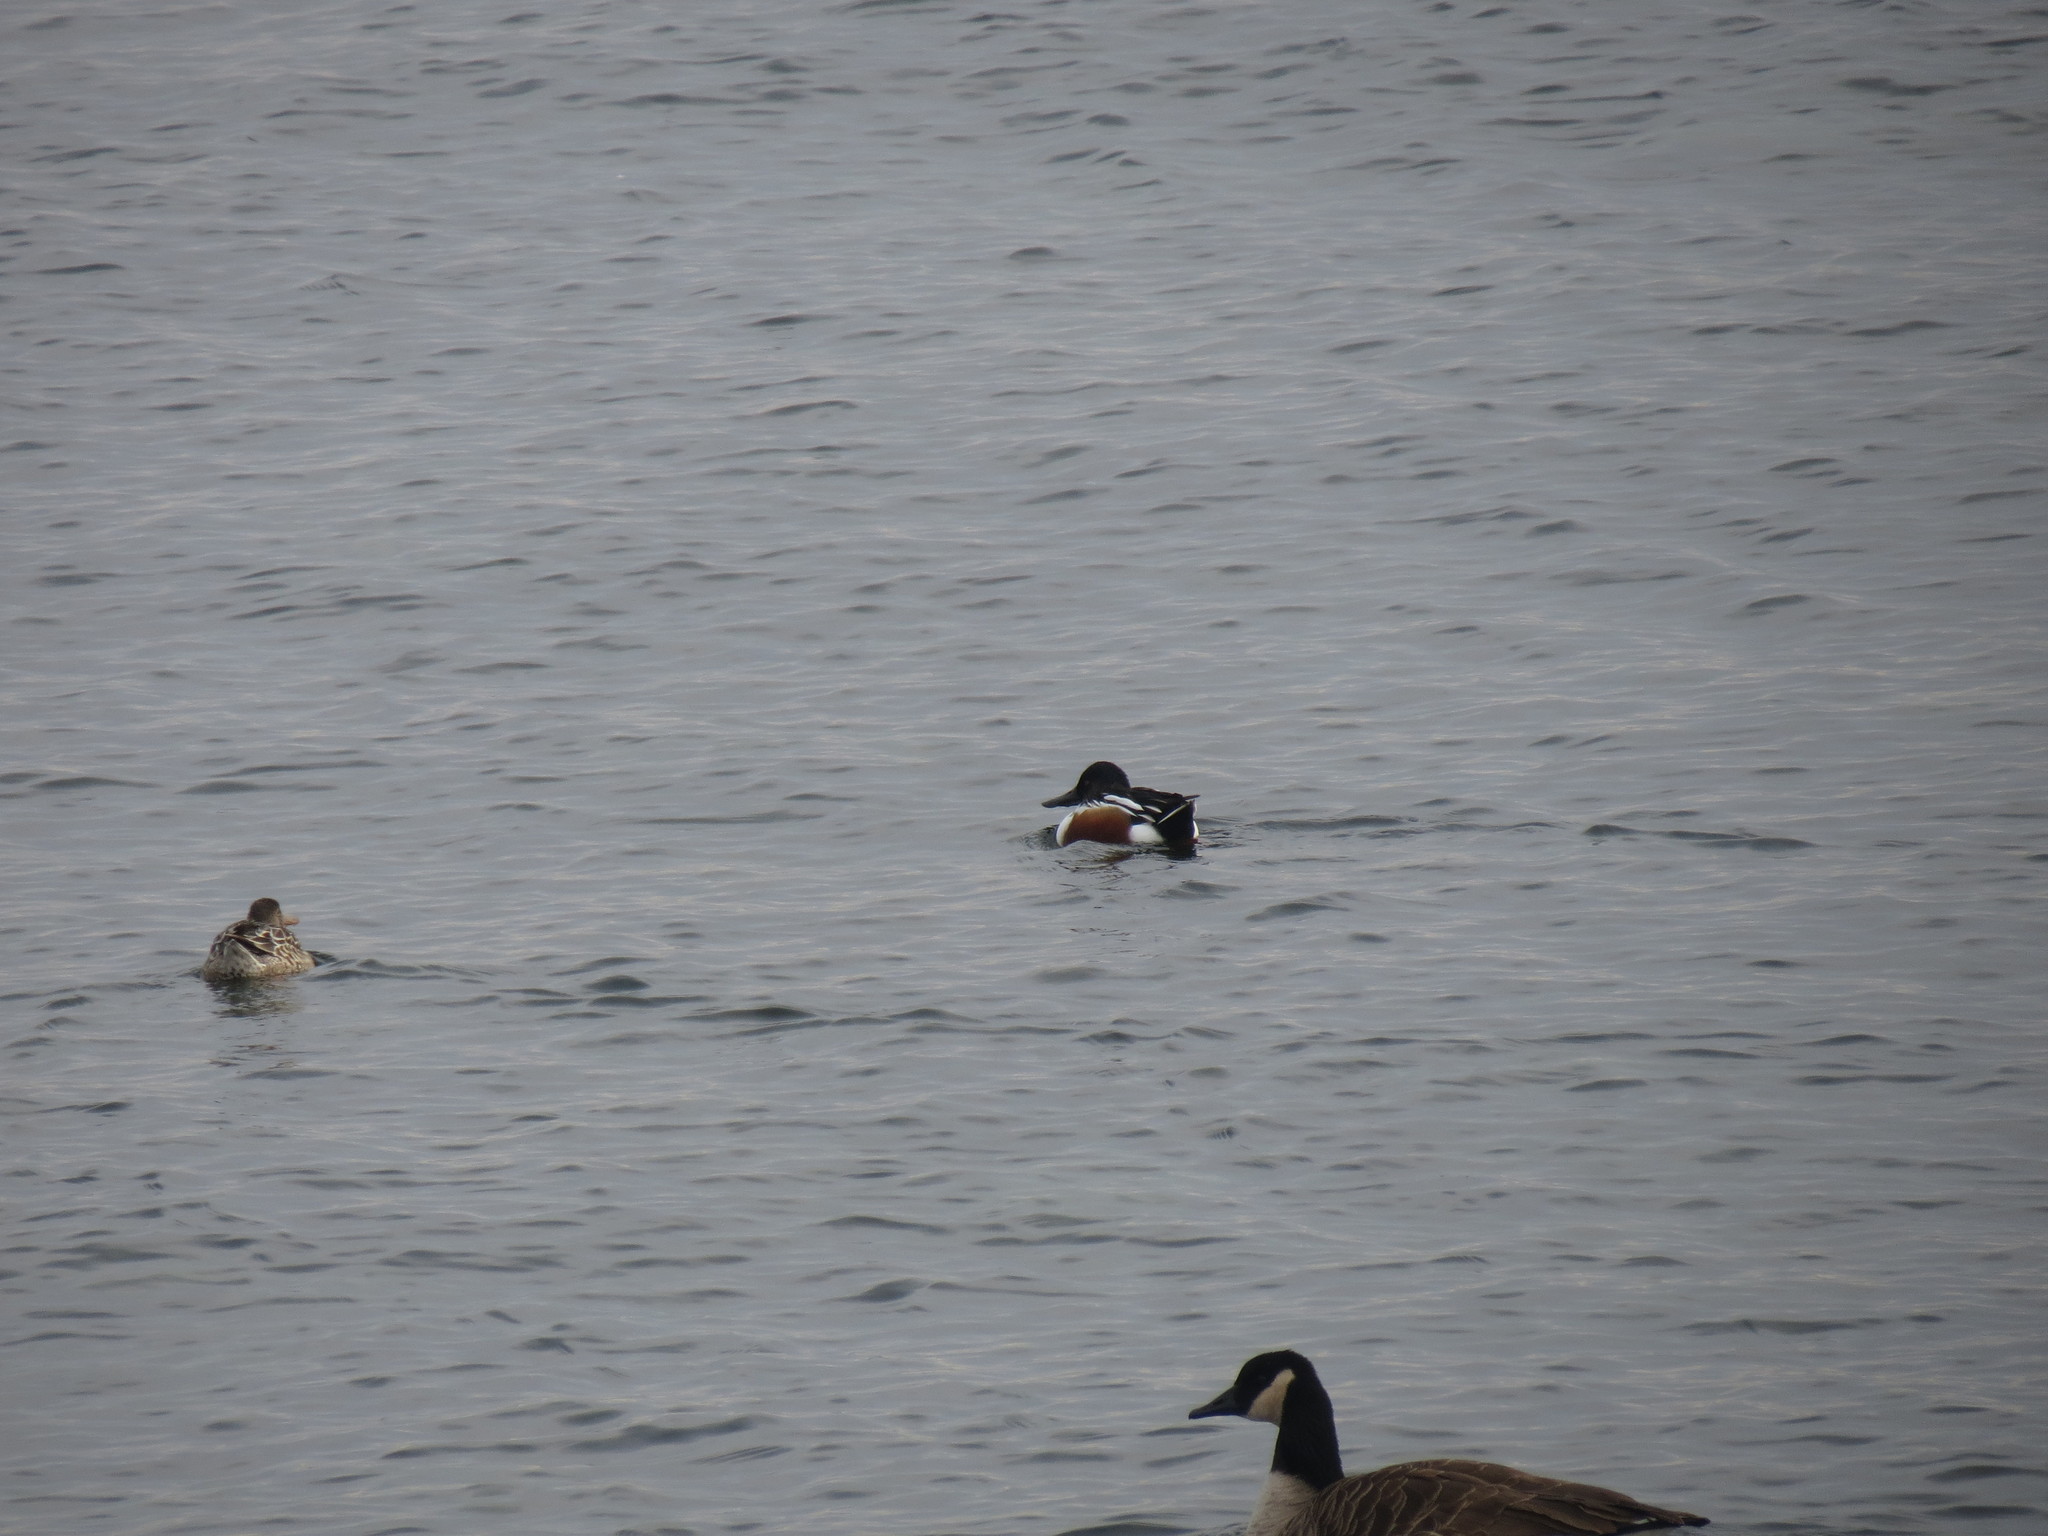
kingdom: Animalia
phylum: Chordata
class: Aves
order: Anseriformes
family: Anatidae
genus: Spatula
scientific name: Spatula clypeata
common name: Northern shoveler
